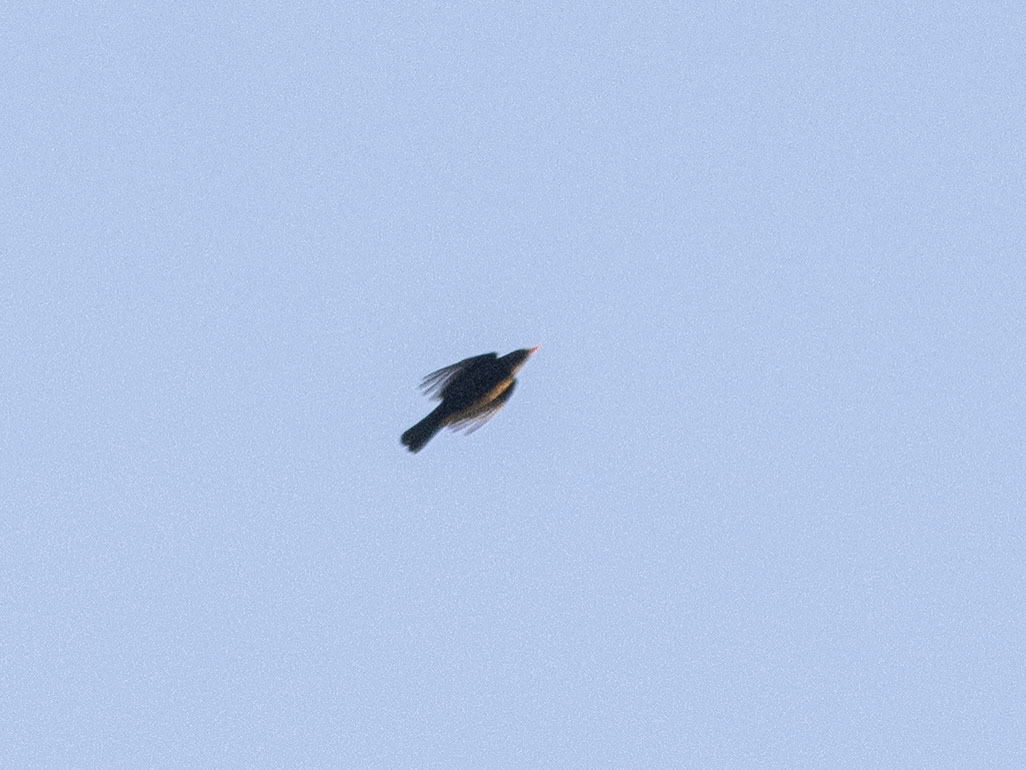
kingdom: Animalia
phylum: Chordata
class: Aves
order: Passeriformes
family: Turdidae
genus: Turdus
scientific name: Turdus merula
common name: Common blackbird
